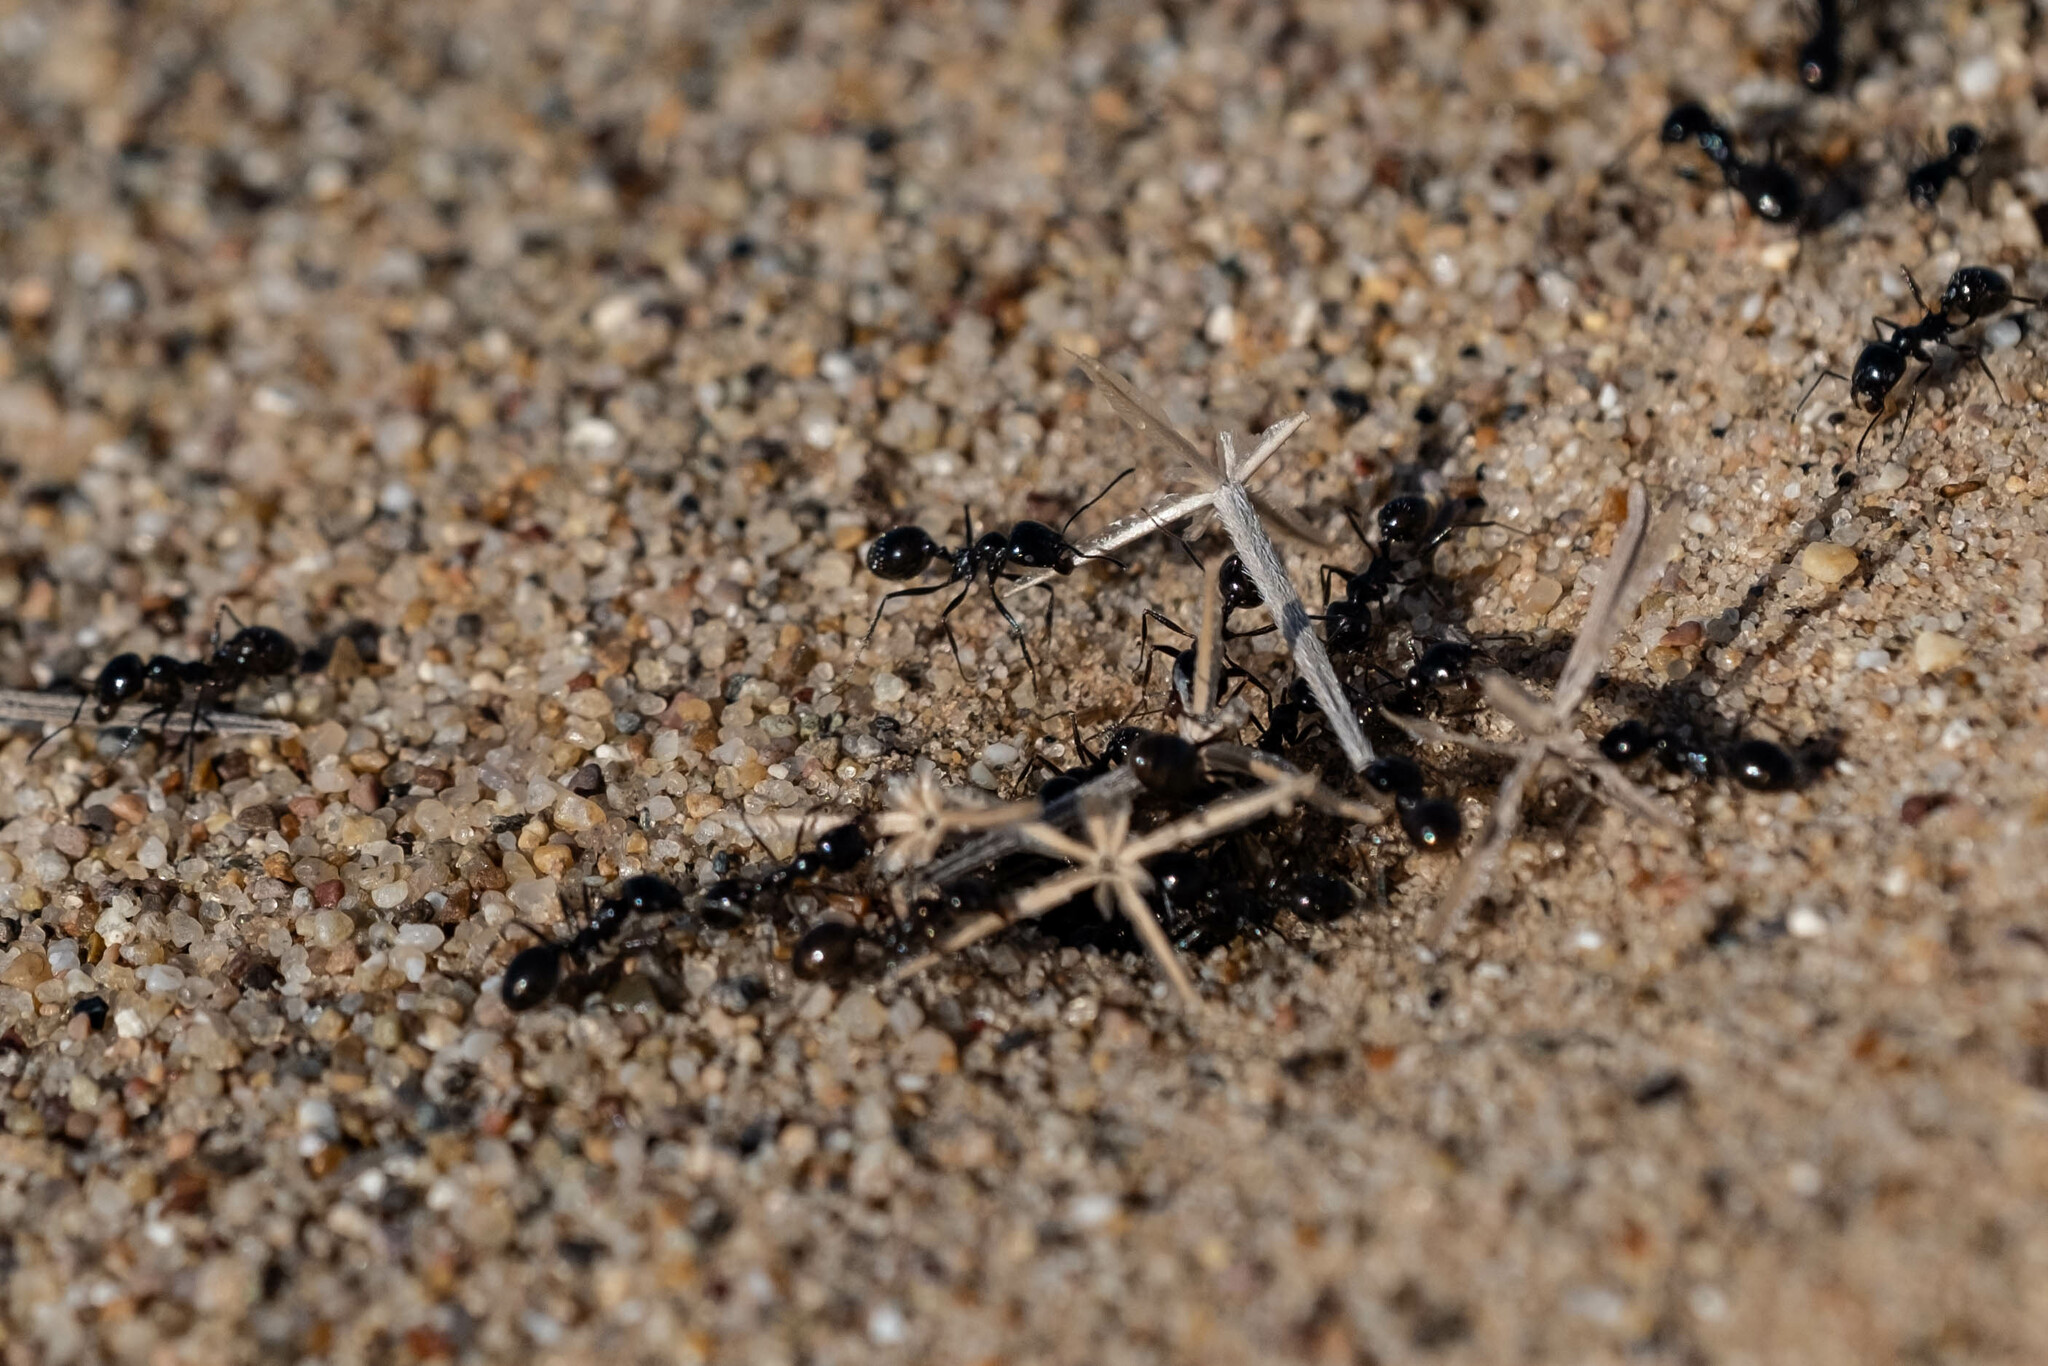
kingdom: Animalia
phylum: Arthropoda
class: Insecta
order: Hymenoptera
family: Formicidae
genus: Messor
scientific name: Messor pergandei
